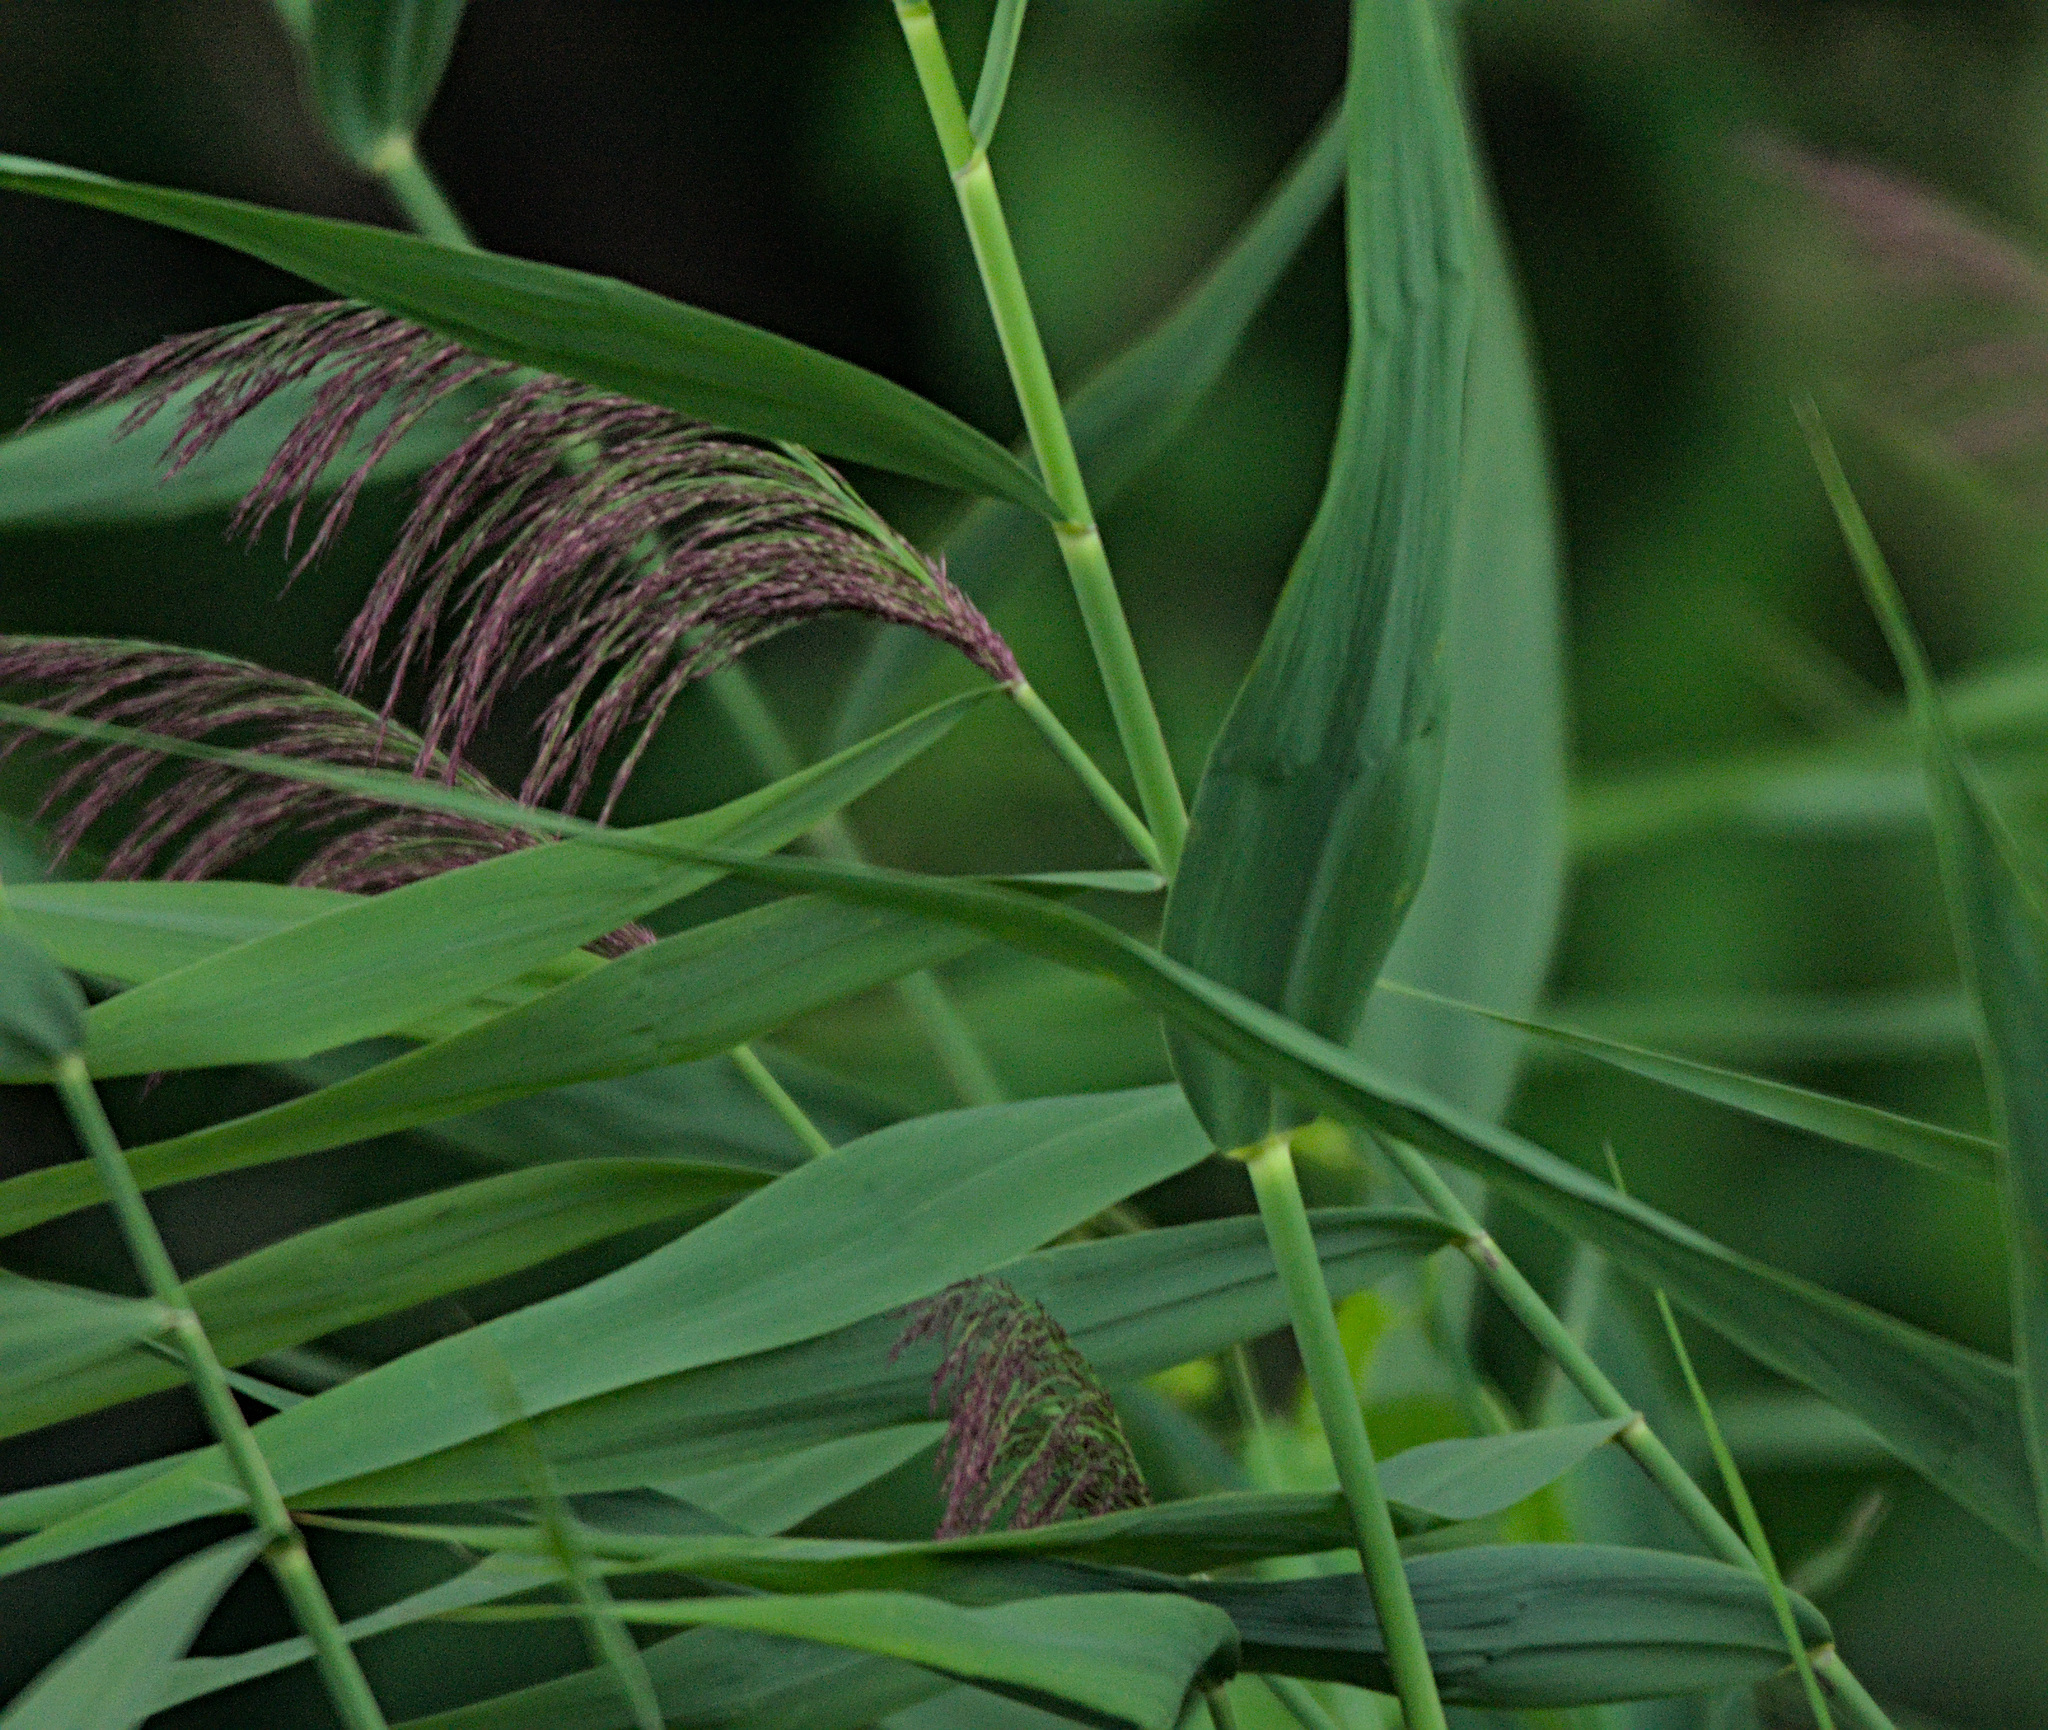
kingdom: Plantae
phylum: Tracheophyta
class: Liliopsida
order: Poales
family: Poaceae
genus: Phragmites
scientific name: Phragmites australis
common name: Common reed
